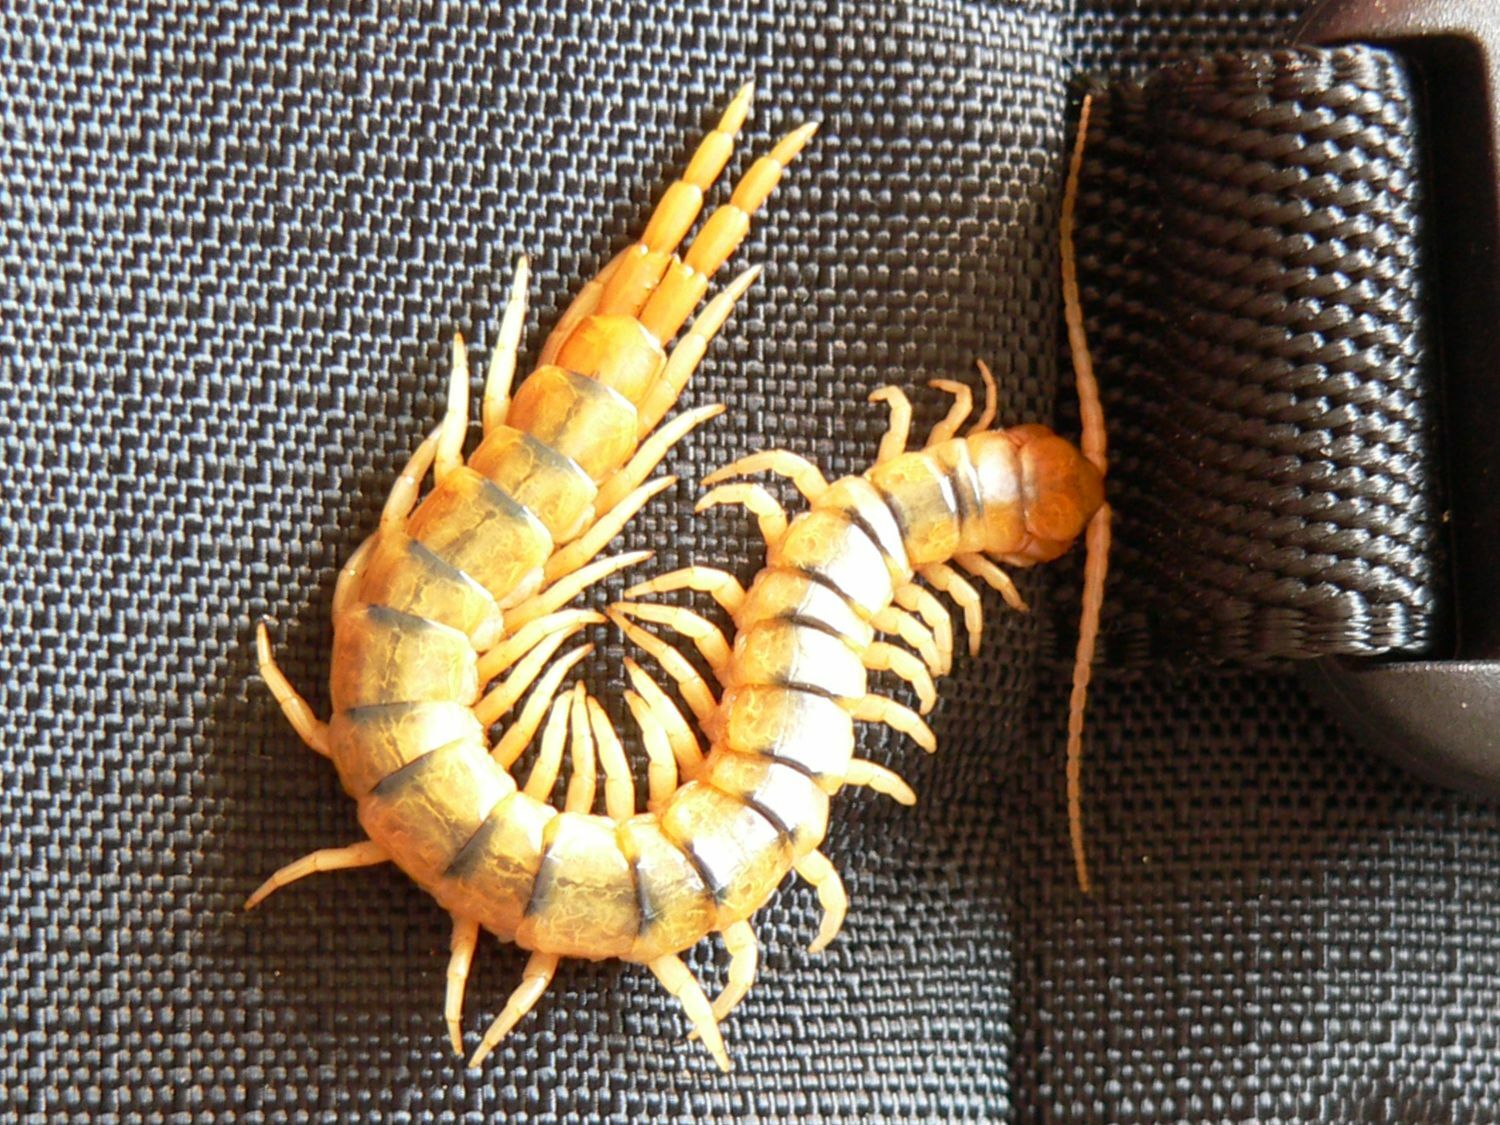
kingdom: Animalia
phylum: Arthropoda
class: Chilopoda
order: Scolopendromorpha
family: Scolopendridae
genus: Scolopendra
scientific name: Scolopendra cingulata
